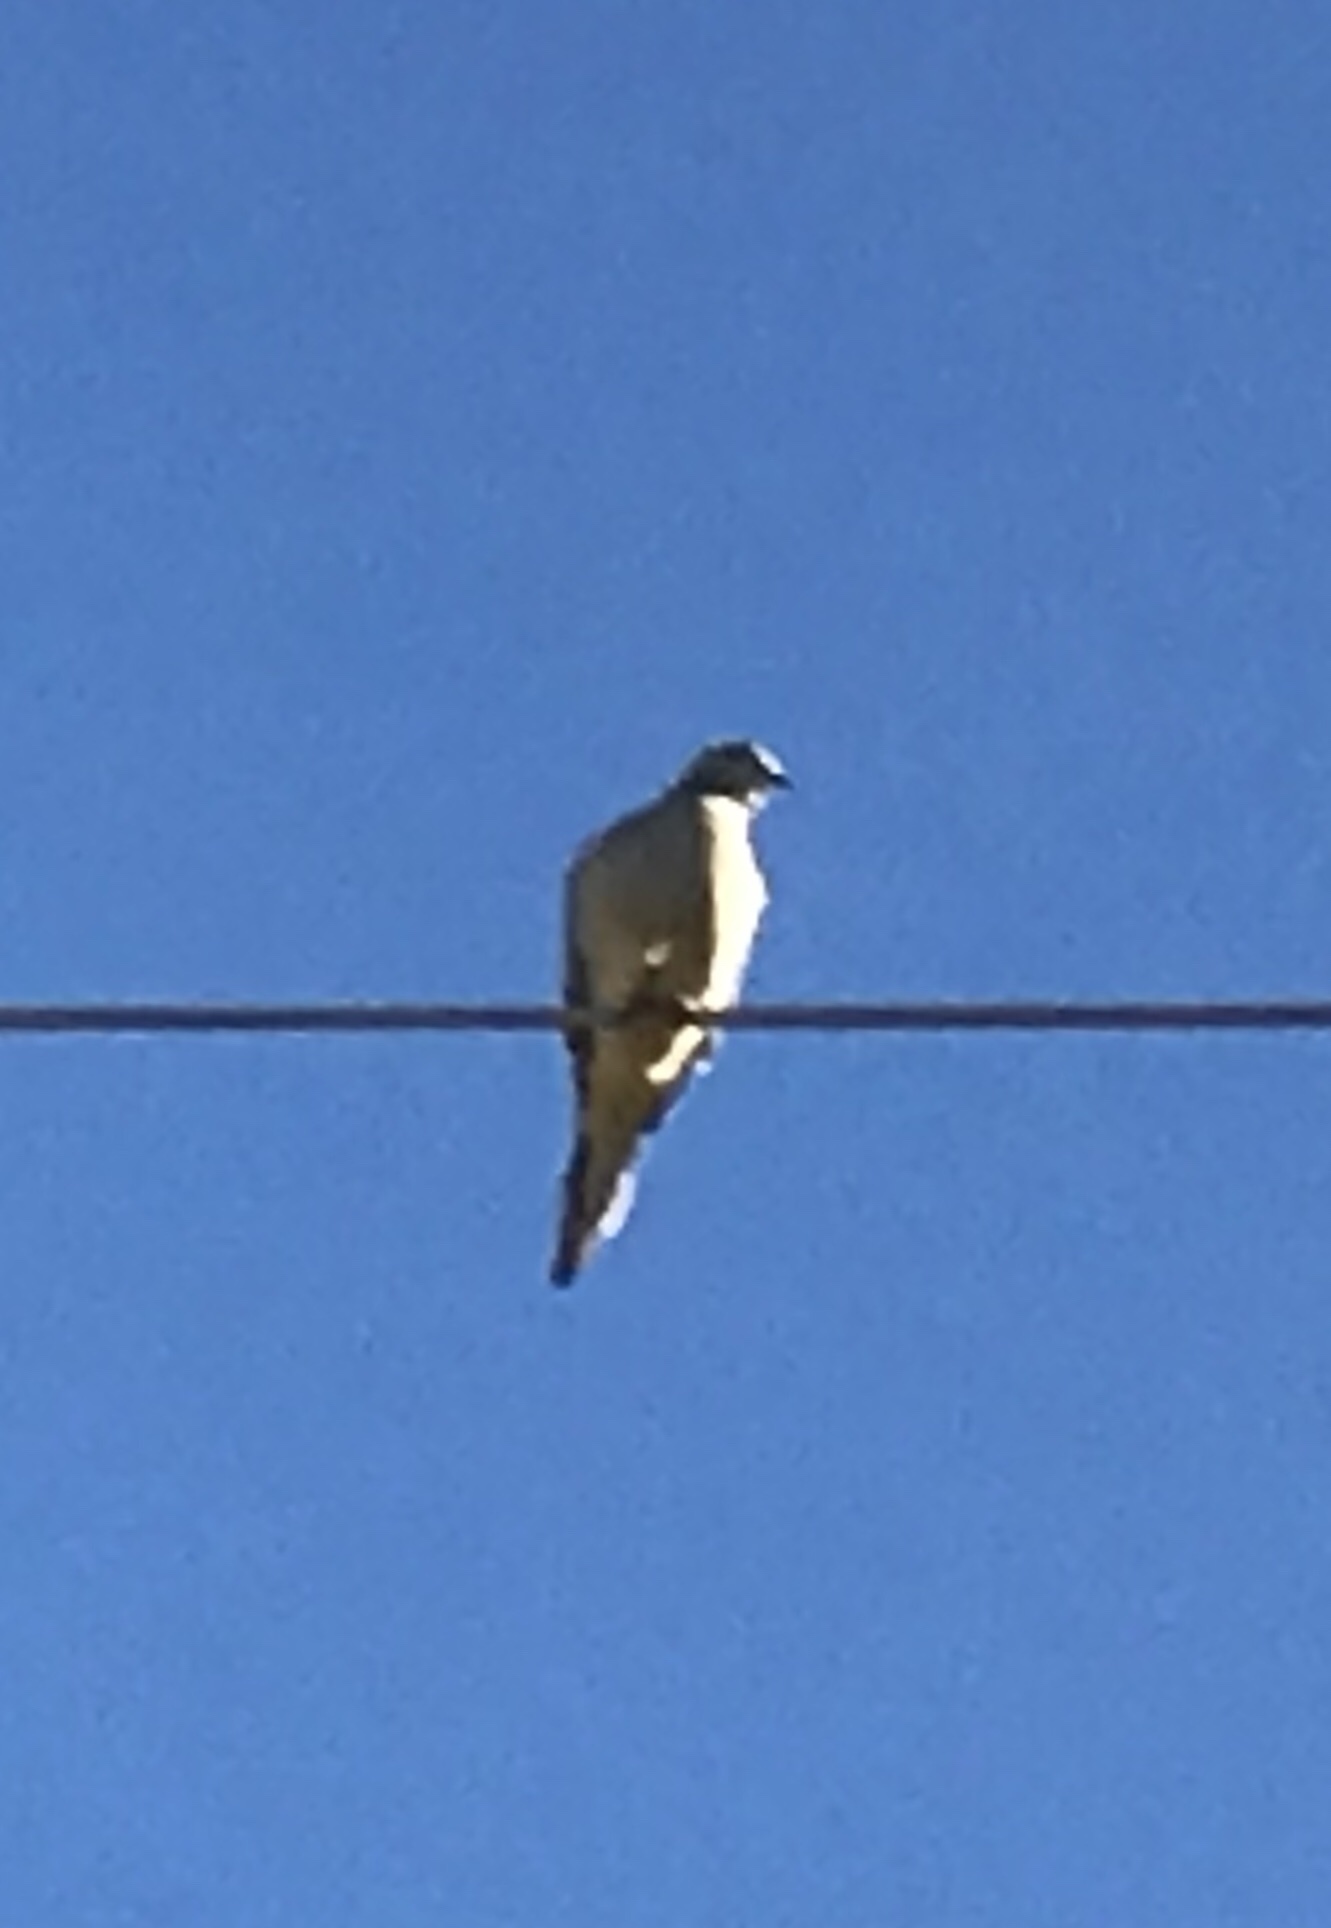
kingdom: Animalia
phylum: Chordata
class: Aves
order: Columbiformes
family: Columbidae
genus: Zenaida
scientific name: Zenaida macroura
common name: Mourning dove
